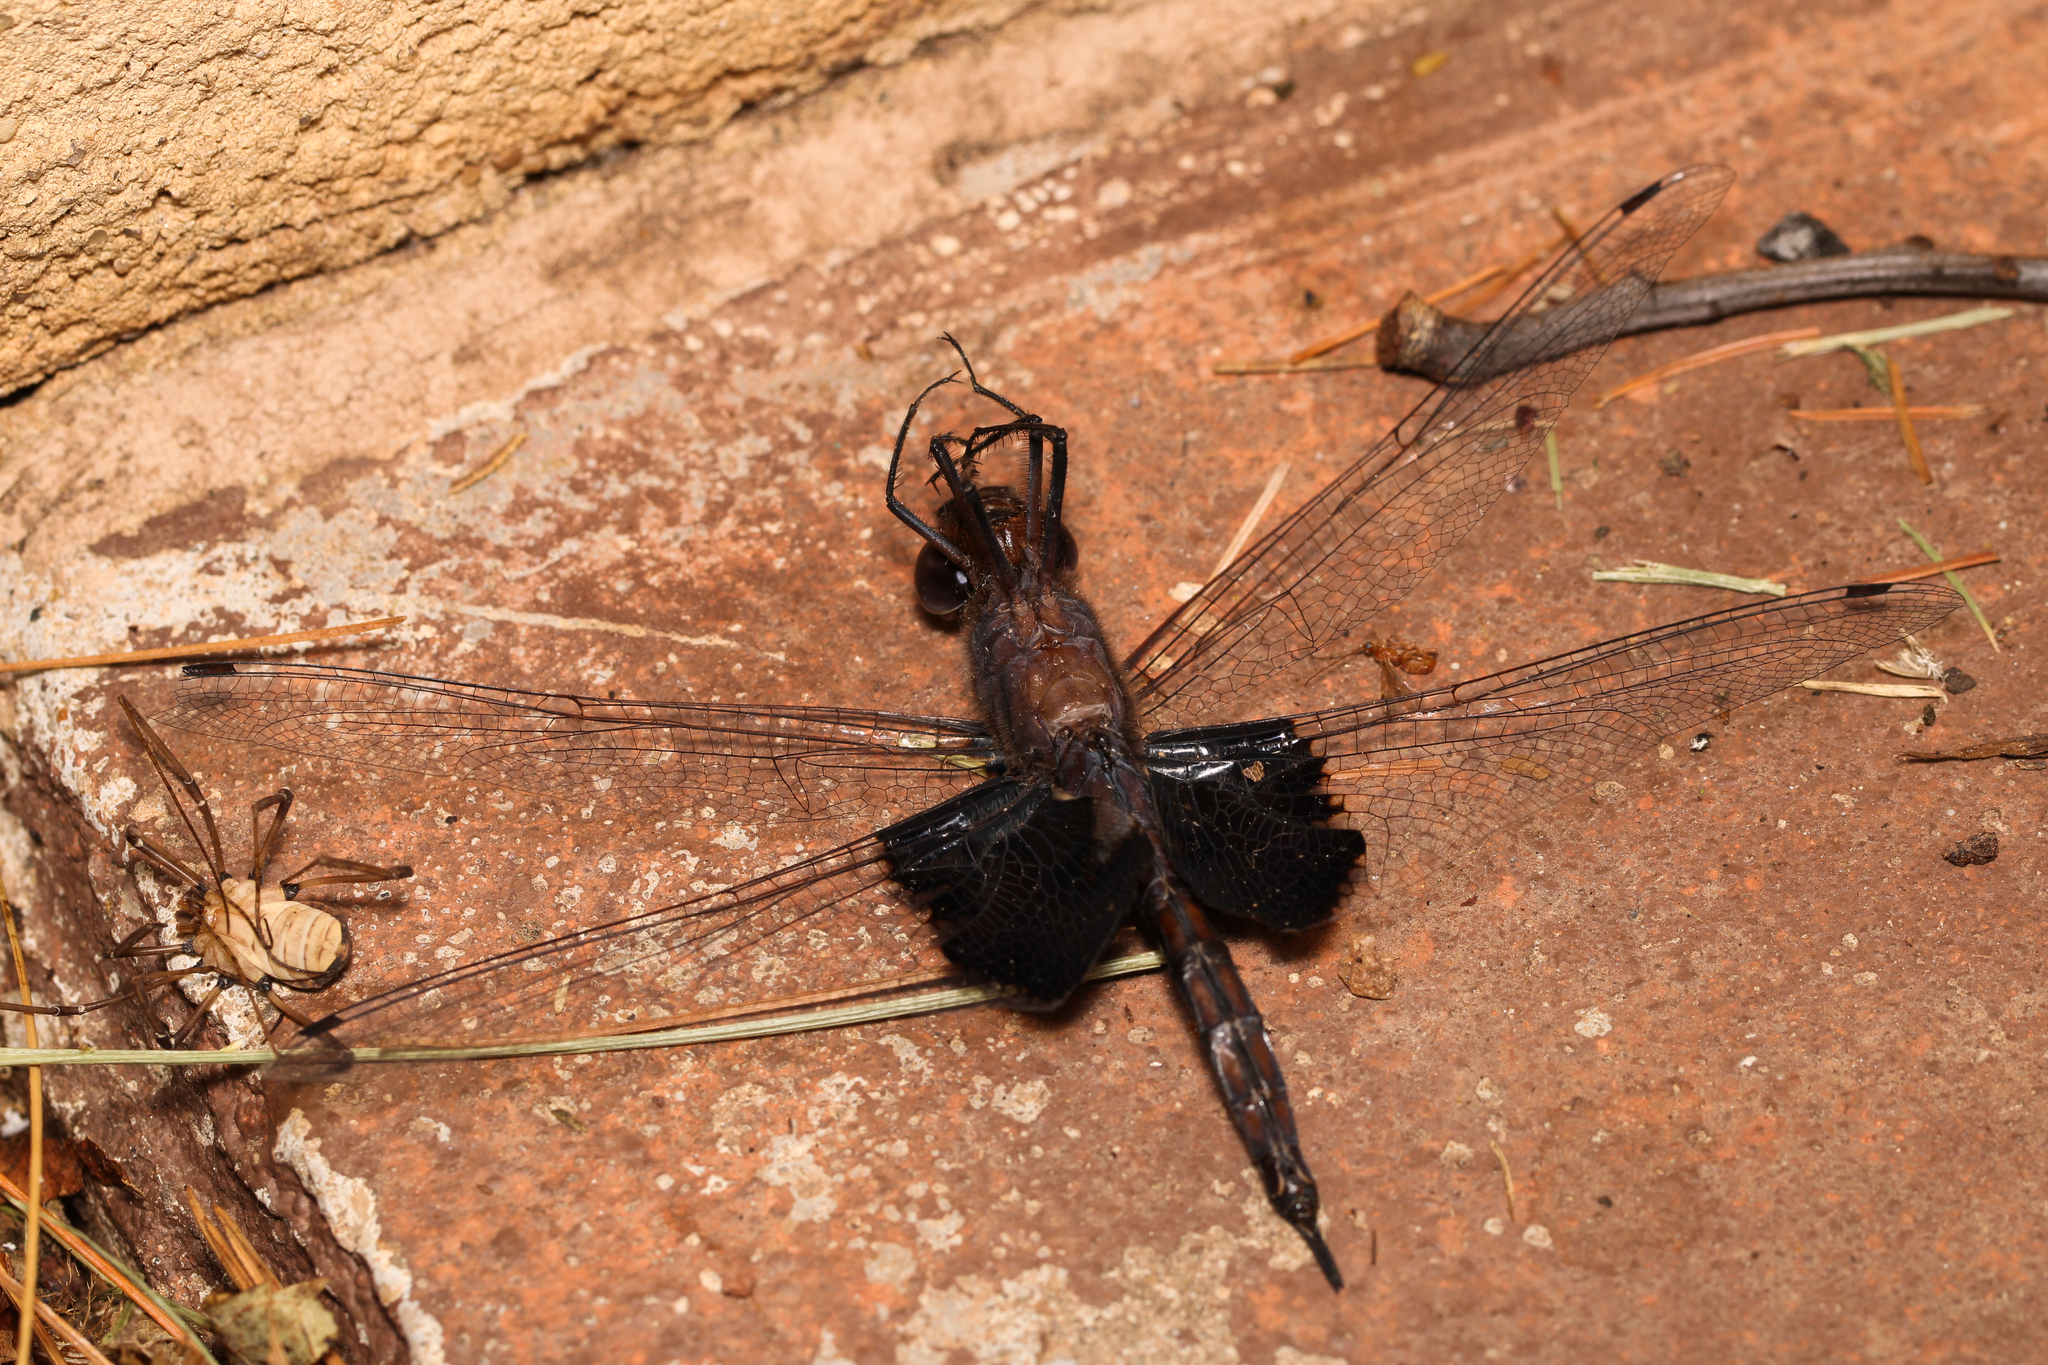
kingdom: Animalia
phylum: Arthropoda
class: Insecta
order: Odonata
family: Libellulidae
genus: Tramea
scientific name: Tramea lacerata
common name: Black saddlebags
